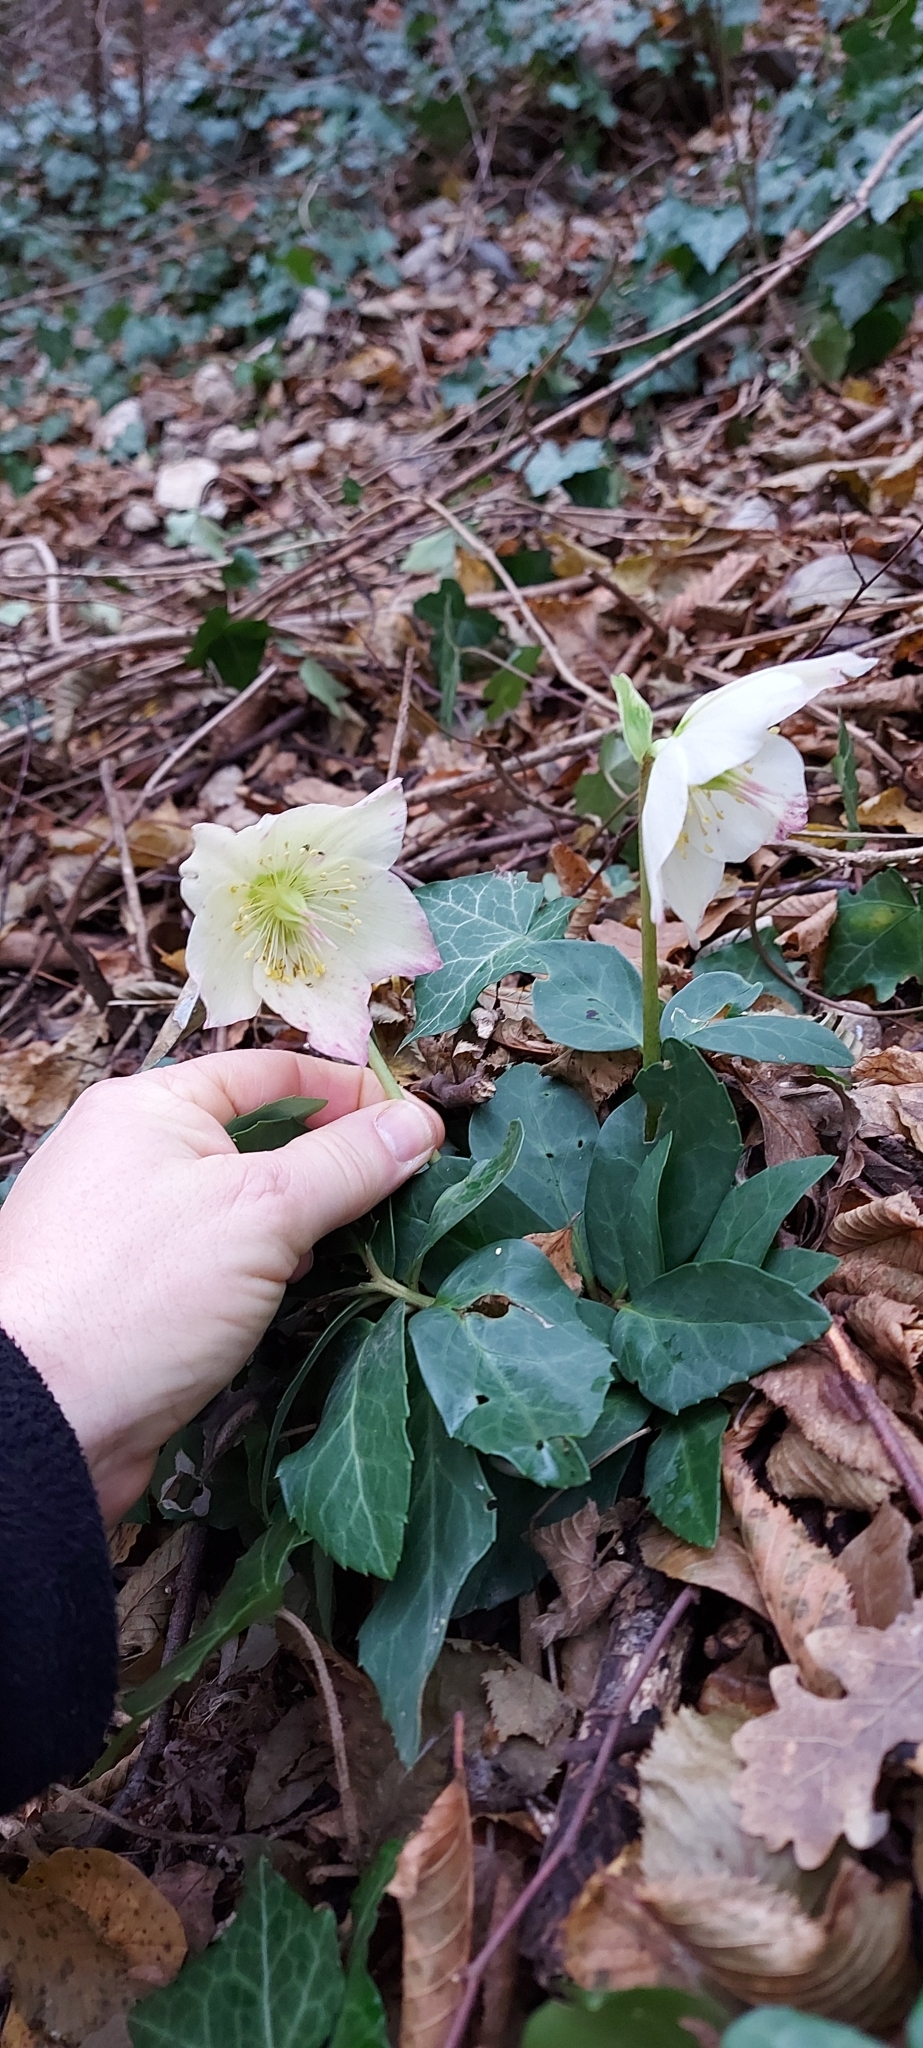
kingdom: Plantae
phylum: Tracheophyta
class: Magnoliopsida
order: Ranunculales
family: Ranunculaceae
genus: Helleborus
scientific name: Helleborus niger
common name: Black hellebore
